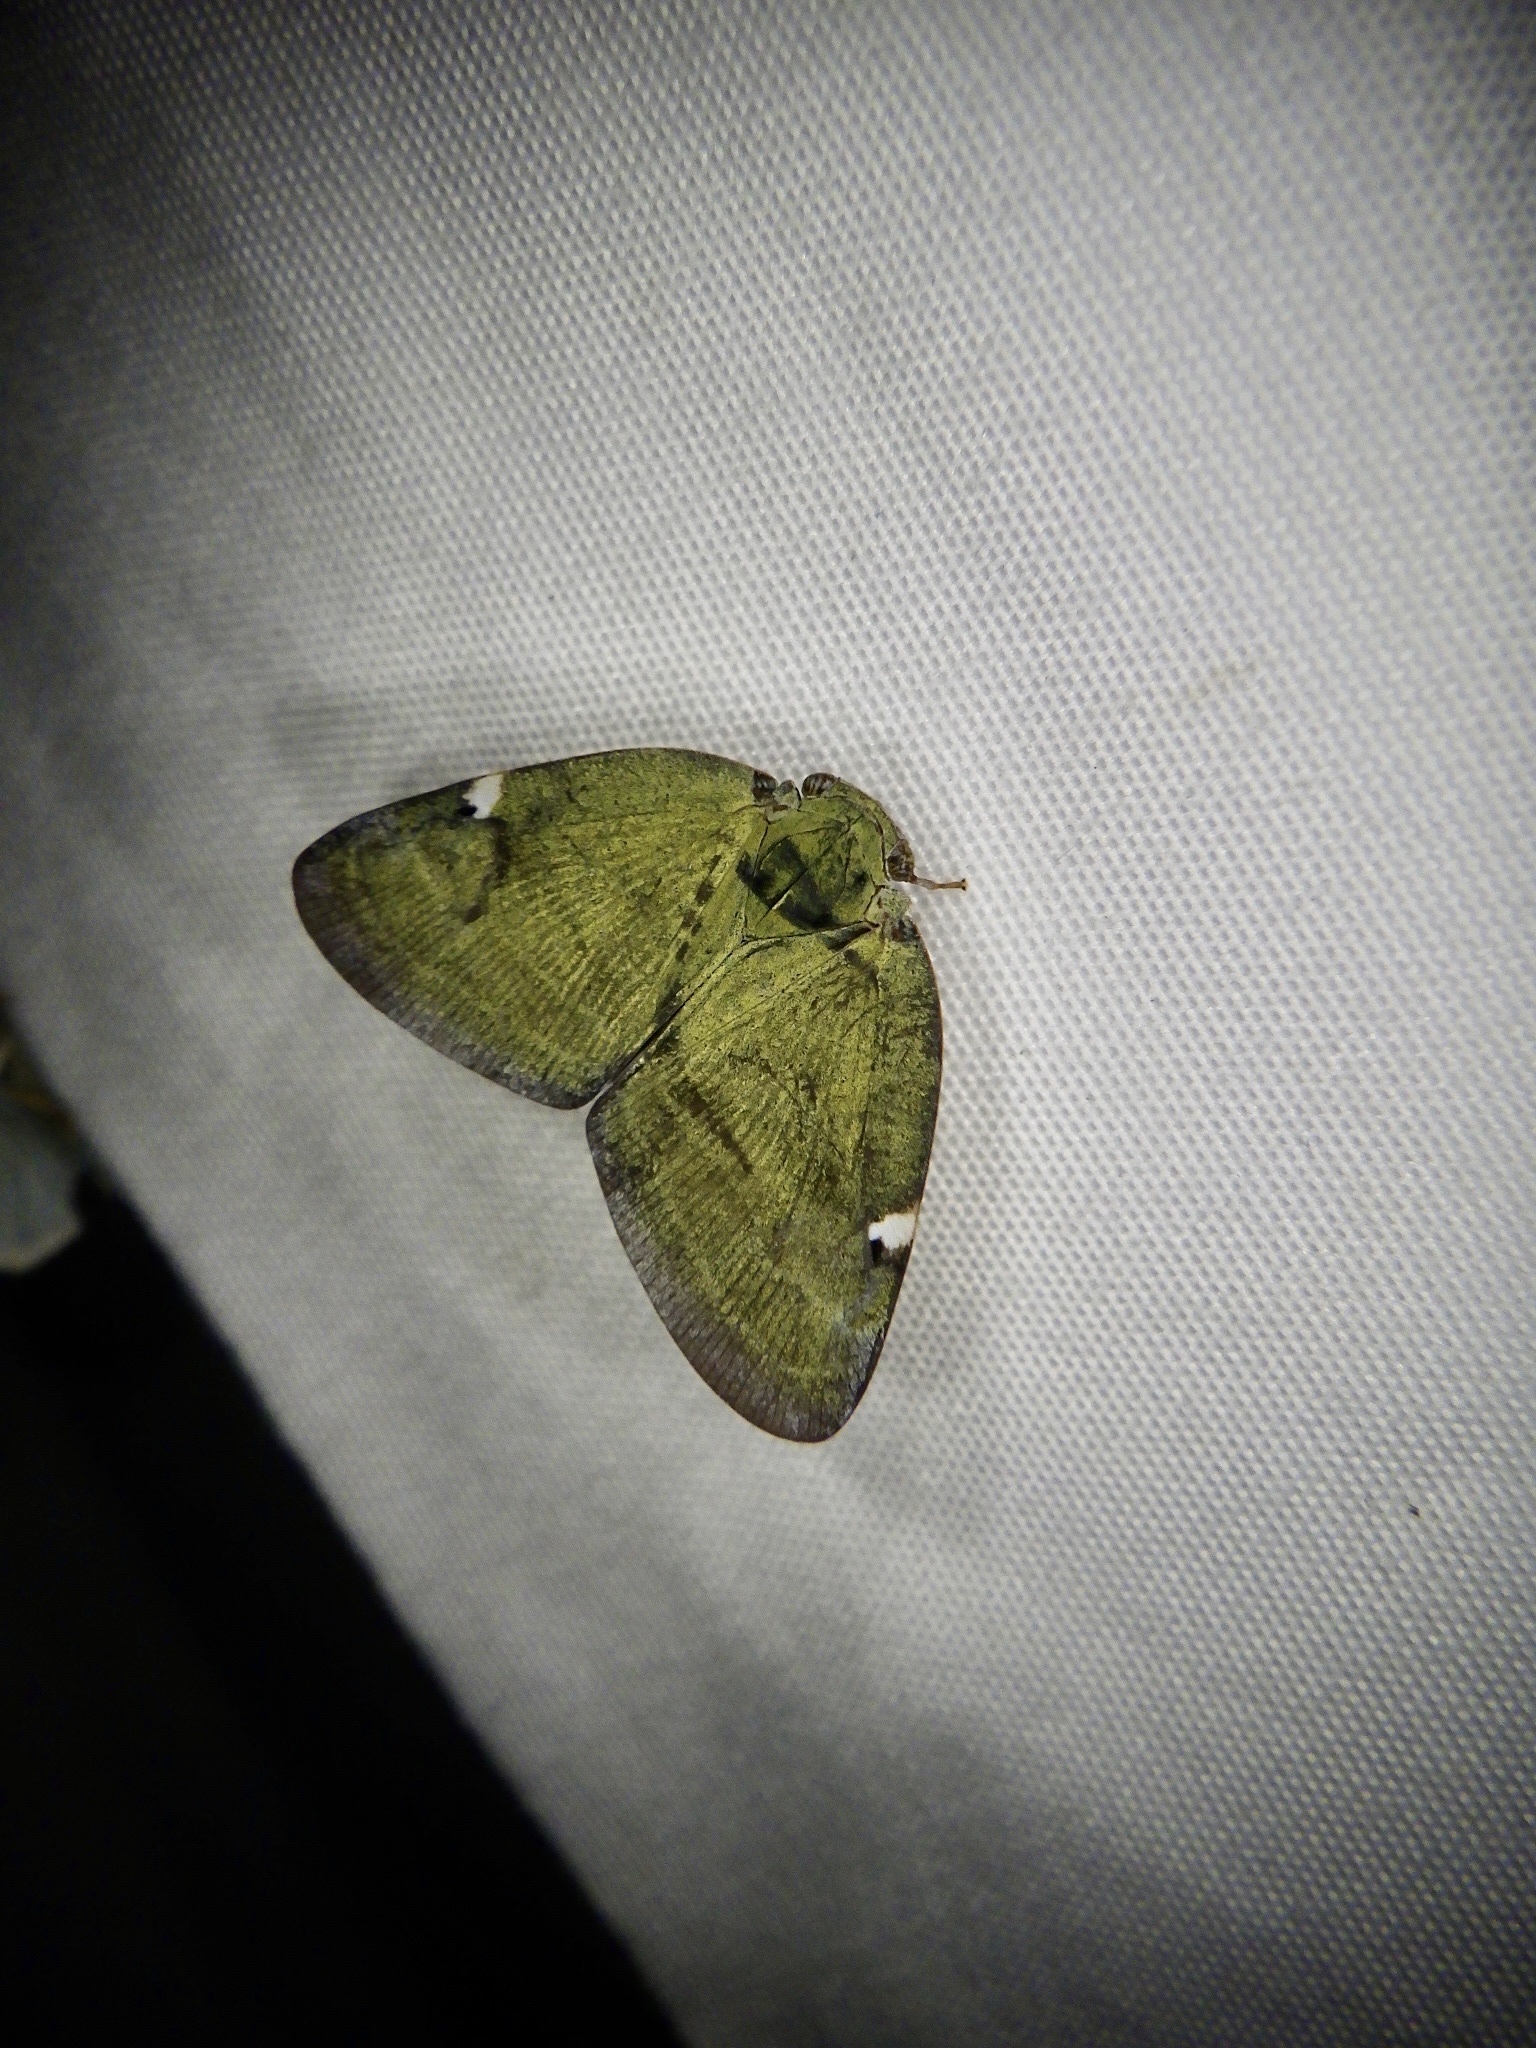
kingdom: Animalia
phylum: Arthropoda
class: Insecta
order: Hemiptera
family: Ricaniidae
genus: Pochazia
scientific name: Pochazia albomaculata
